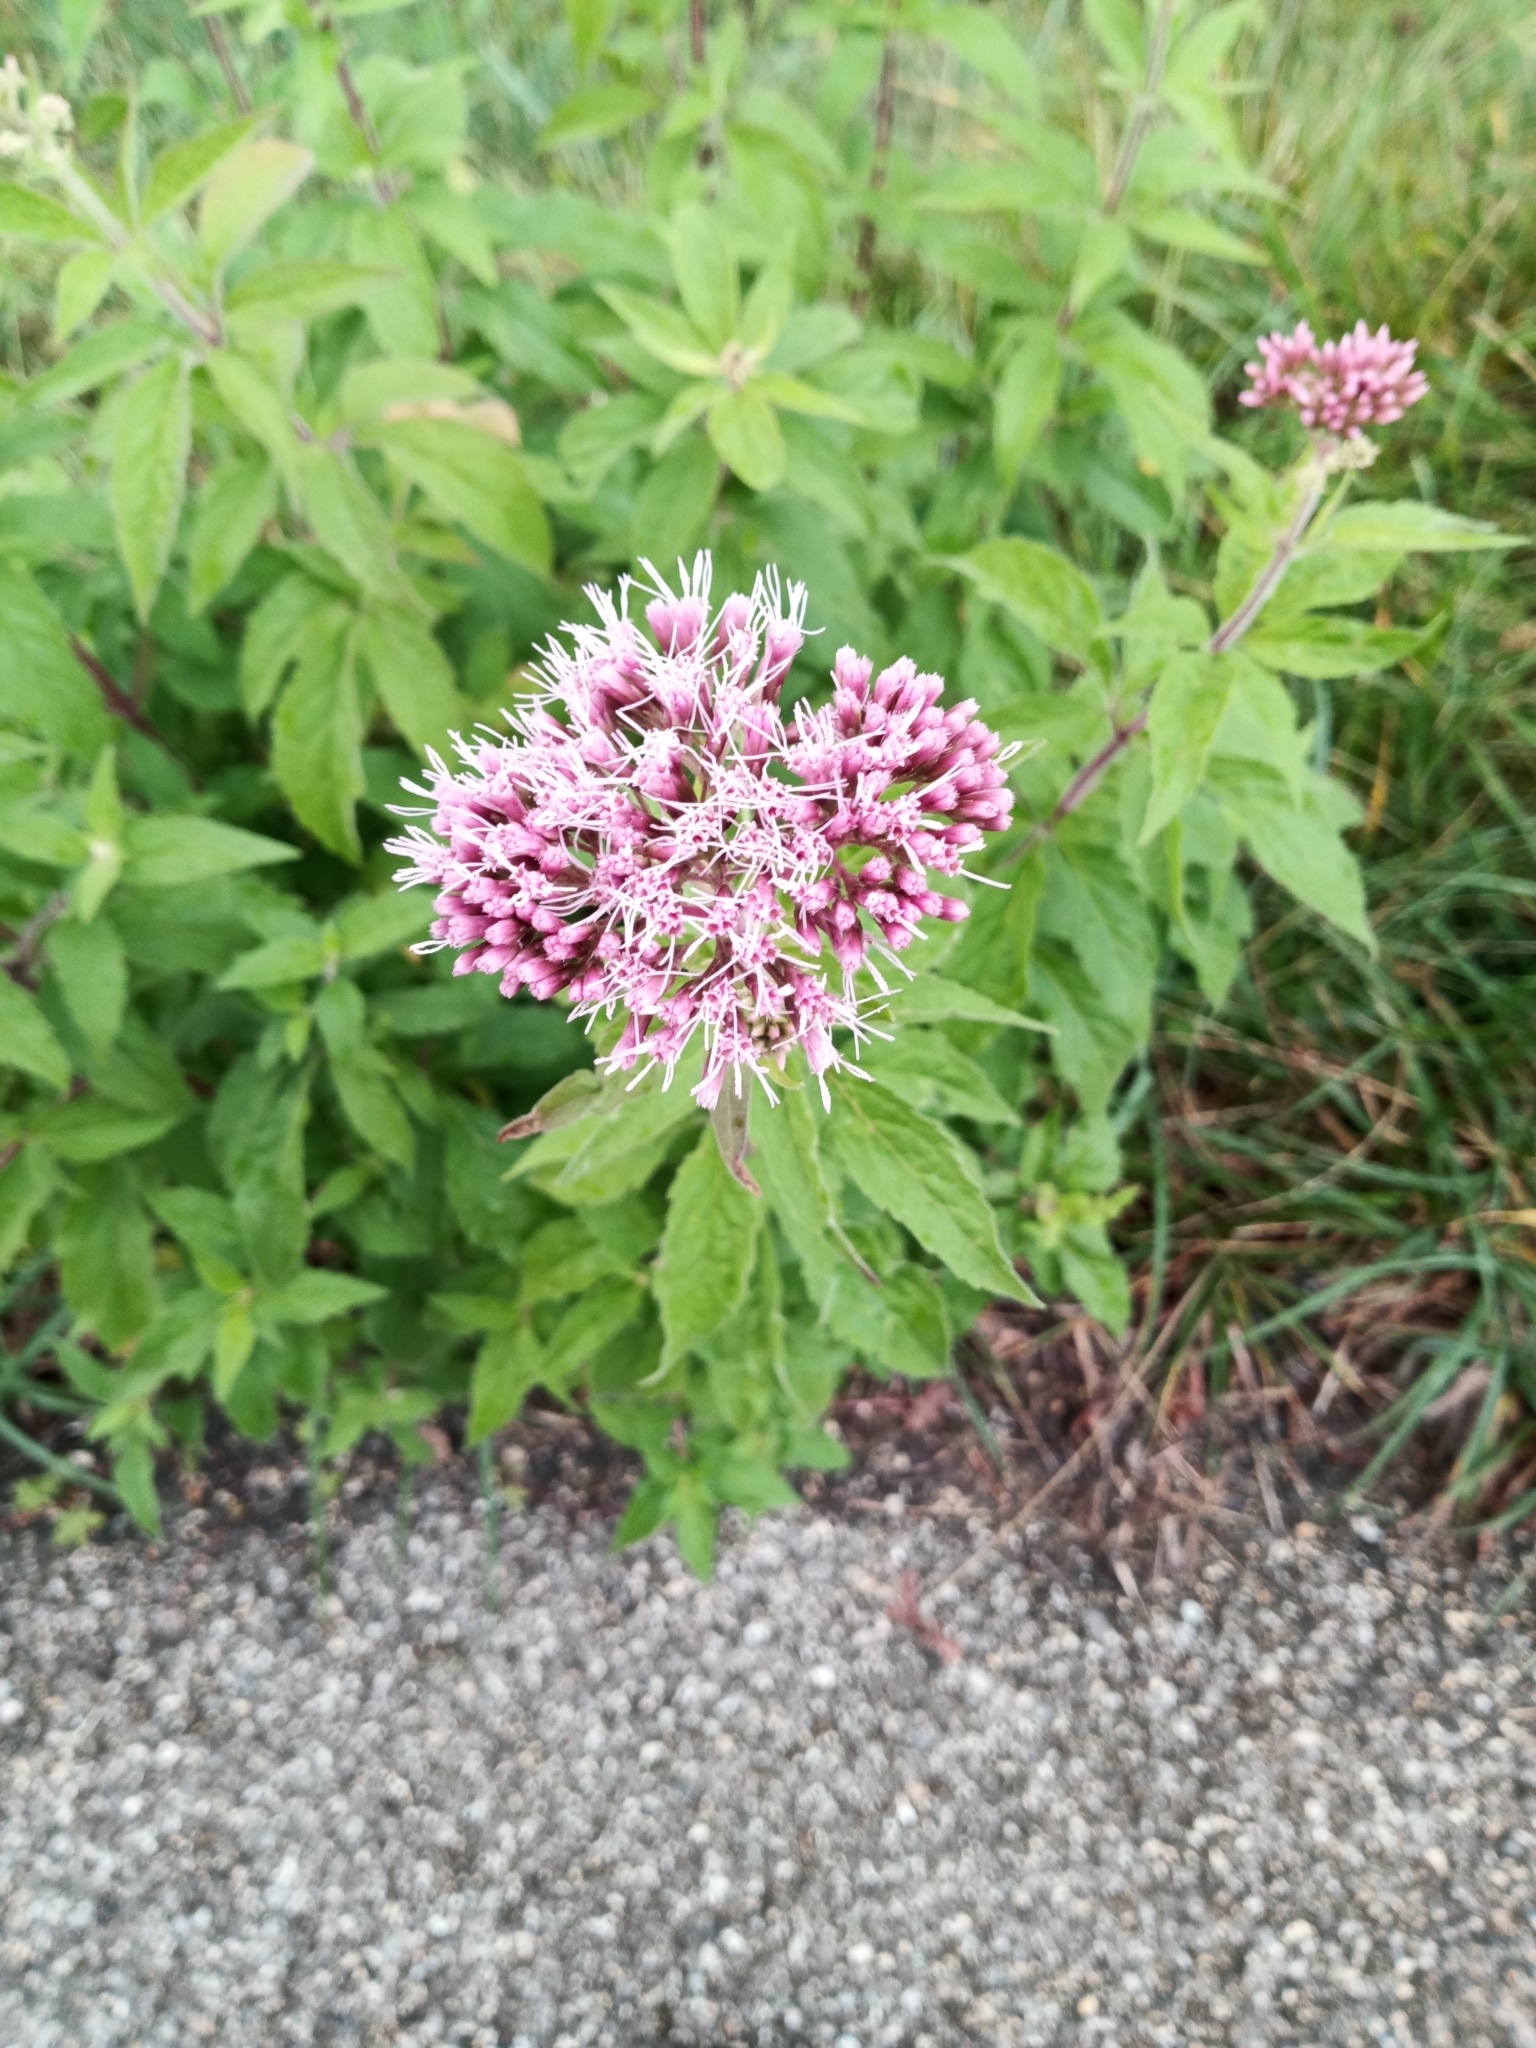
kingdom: Plantae
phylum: Tracheophyta
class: Magnoliopsida
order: Asterales
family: Asteraceae
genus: Eupatorium
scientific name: Eupatorium cannabinum
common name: Hemp-agrimony
